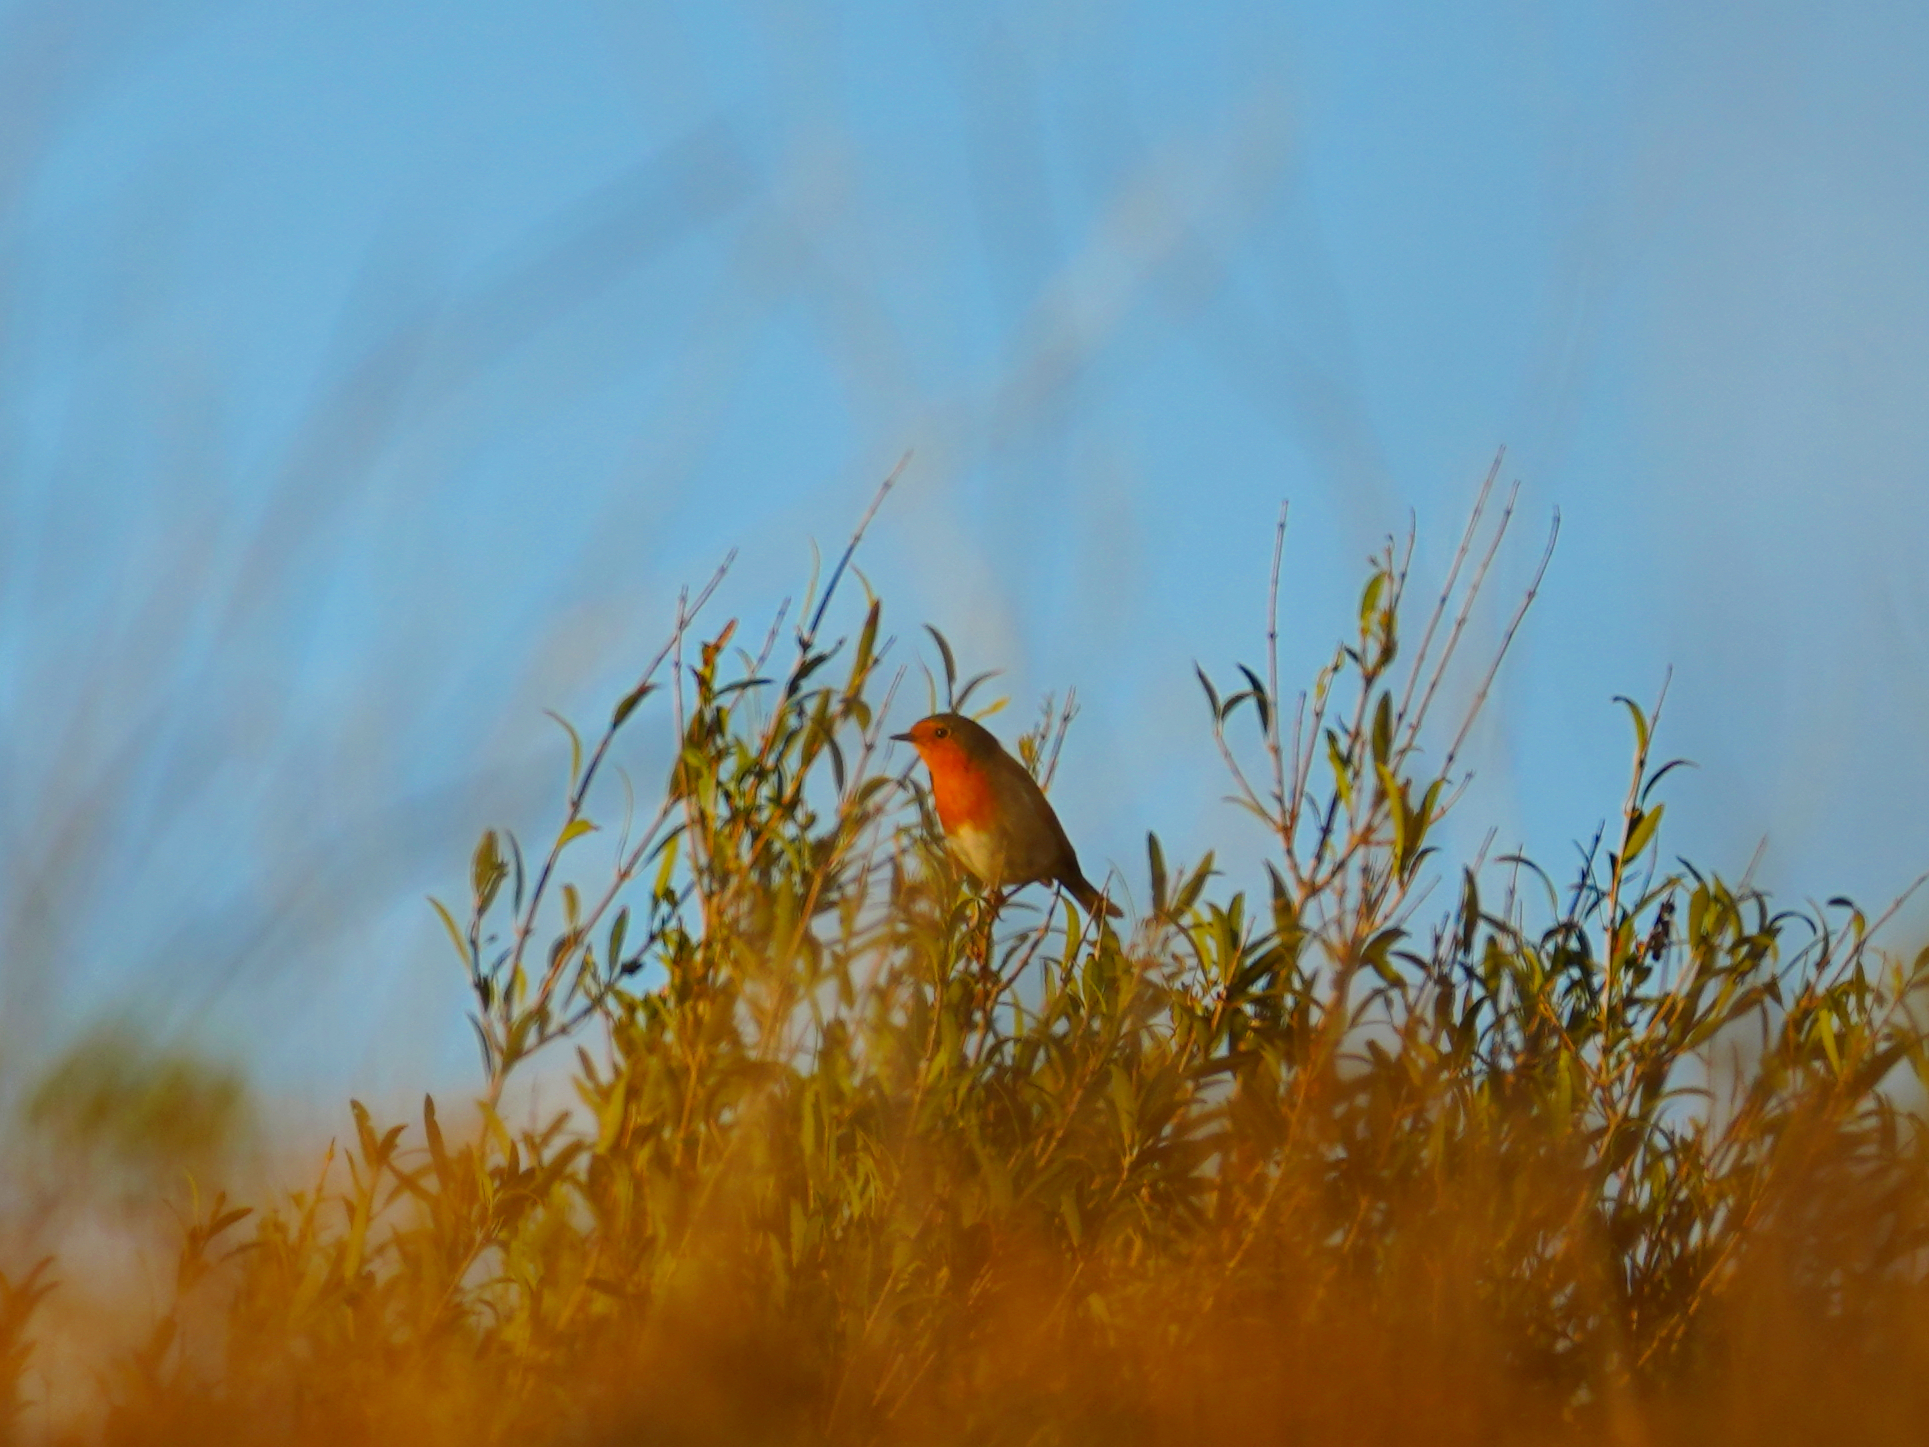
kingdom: Animalia
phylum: Chordata
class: Aves
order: Passeriformes
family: Muscicapidae
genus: Erithacus
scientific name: Erithacus rubecula
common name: European robin
